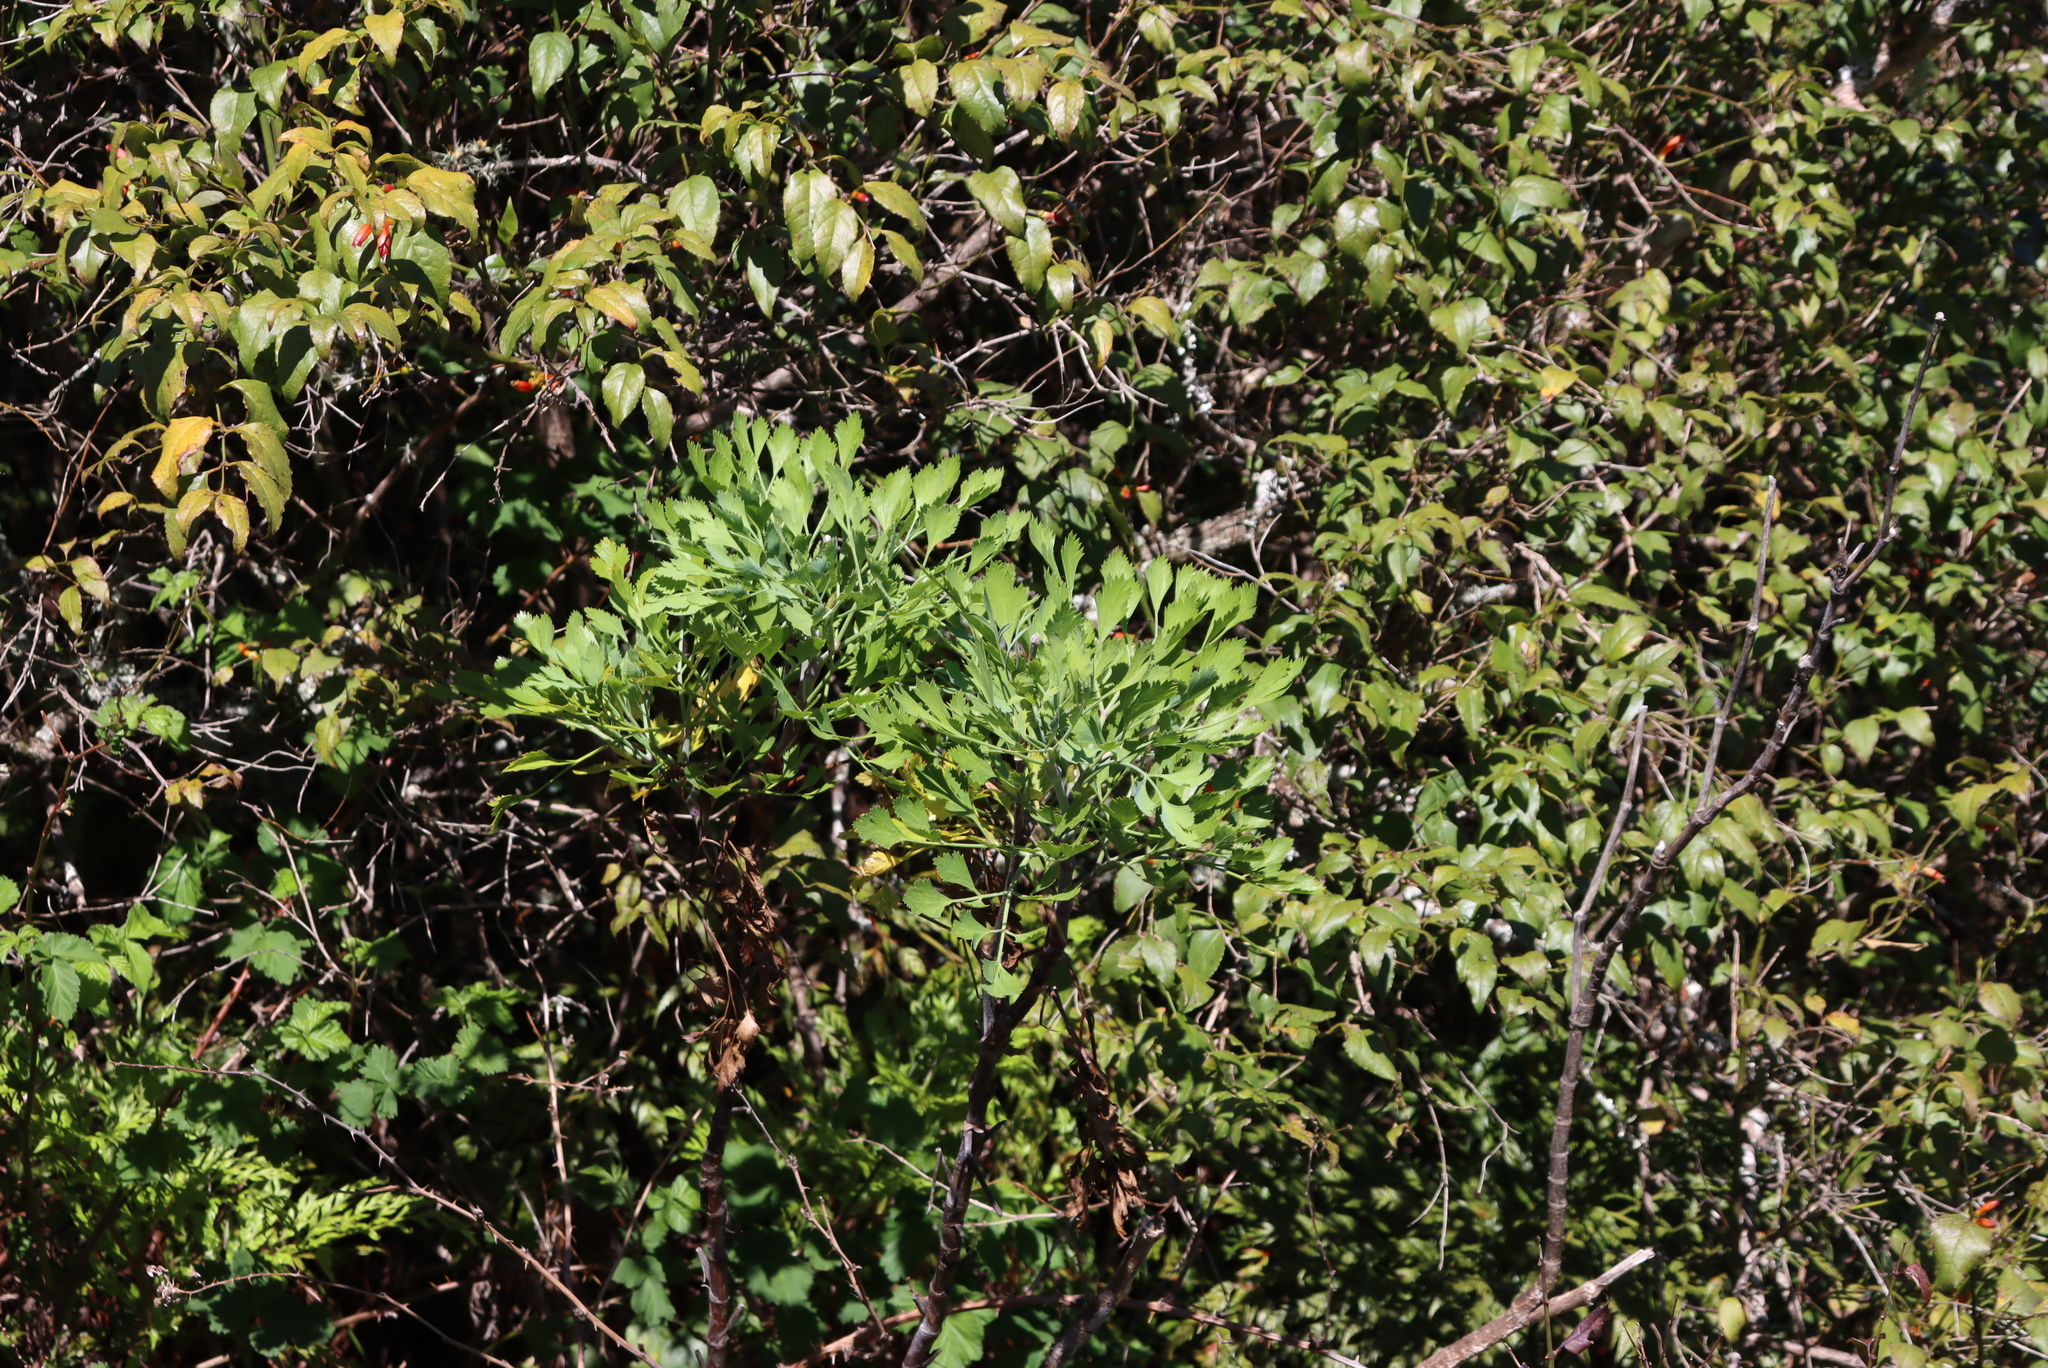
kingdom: Plantae
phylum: Tracheophyta
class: Magnoliopsida
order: Apiales
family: Apiaceae
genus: Notobubon
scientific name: Notobubon galbanum
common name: Blisterbush
